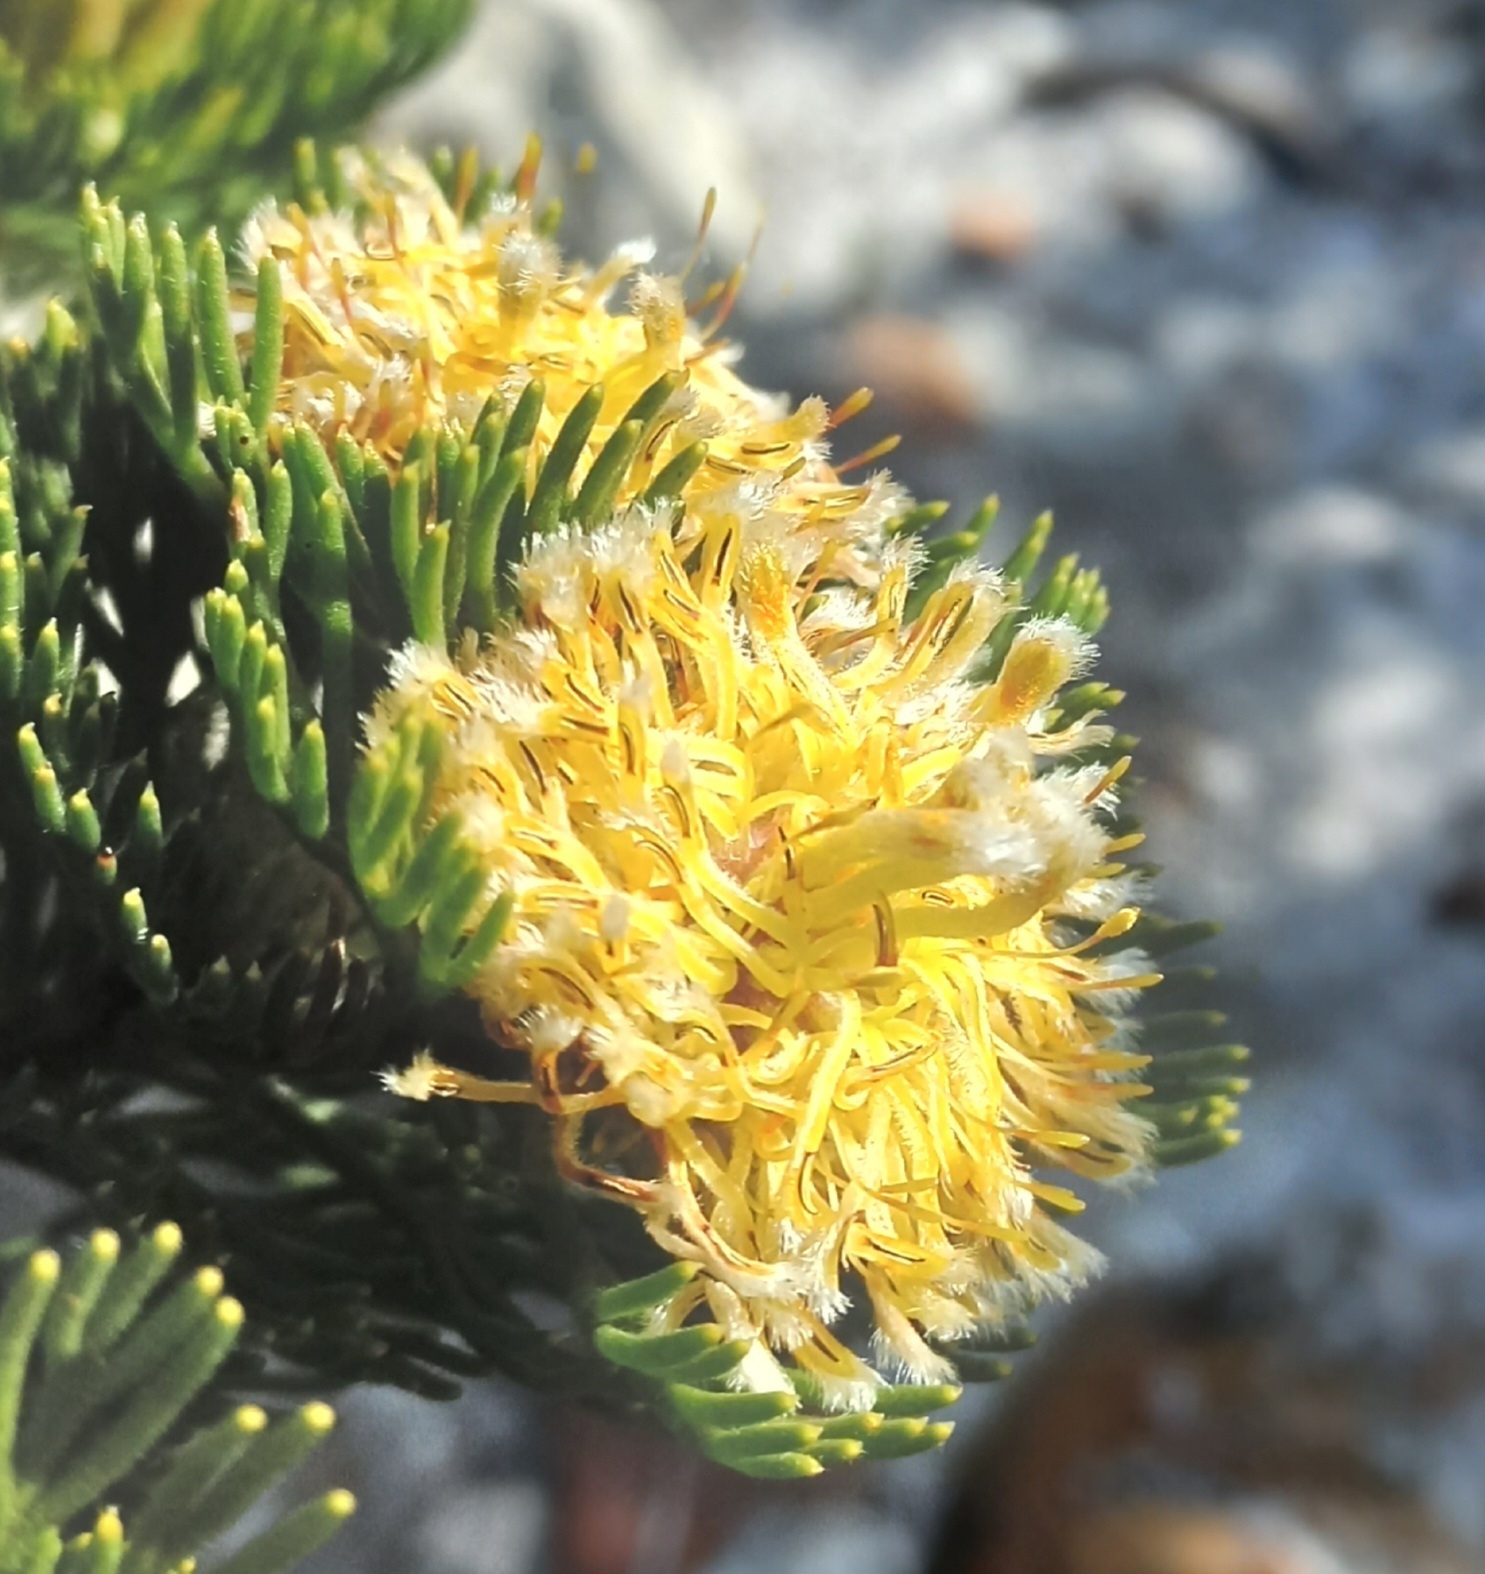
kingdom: Plantae
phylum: Tracheophyta
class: Magnoliopsida
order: Proteales
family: Proteaceae
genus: Serruria
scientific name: Serruria villosa
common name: Golden spiderhead
